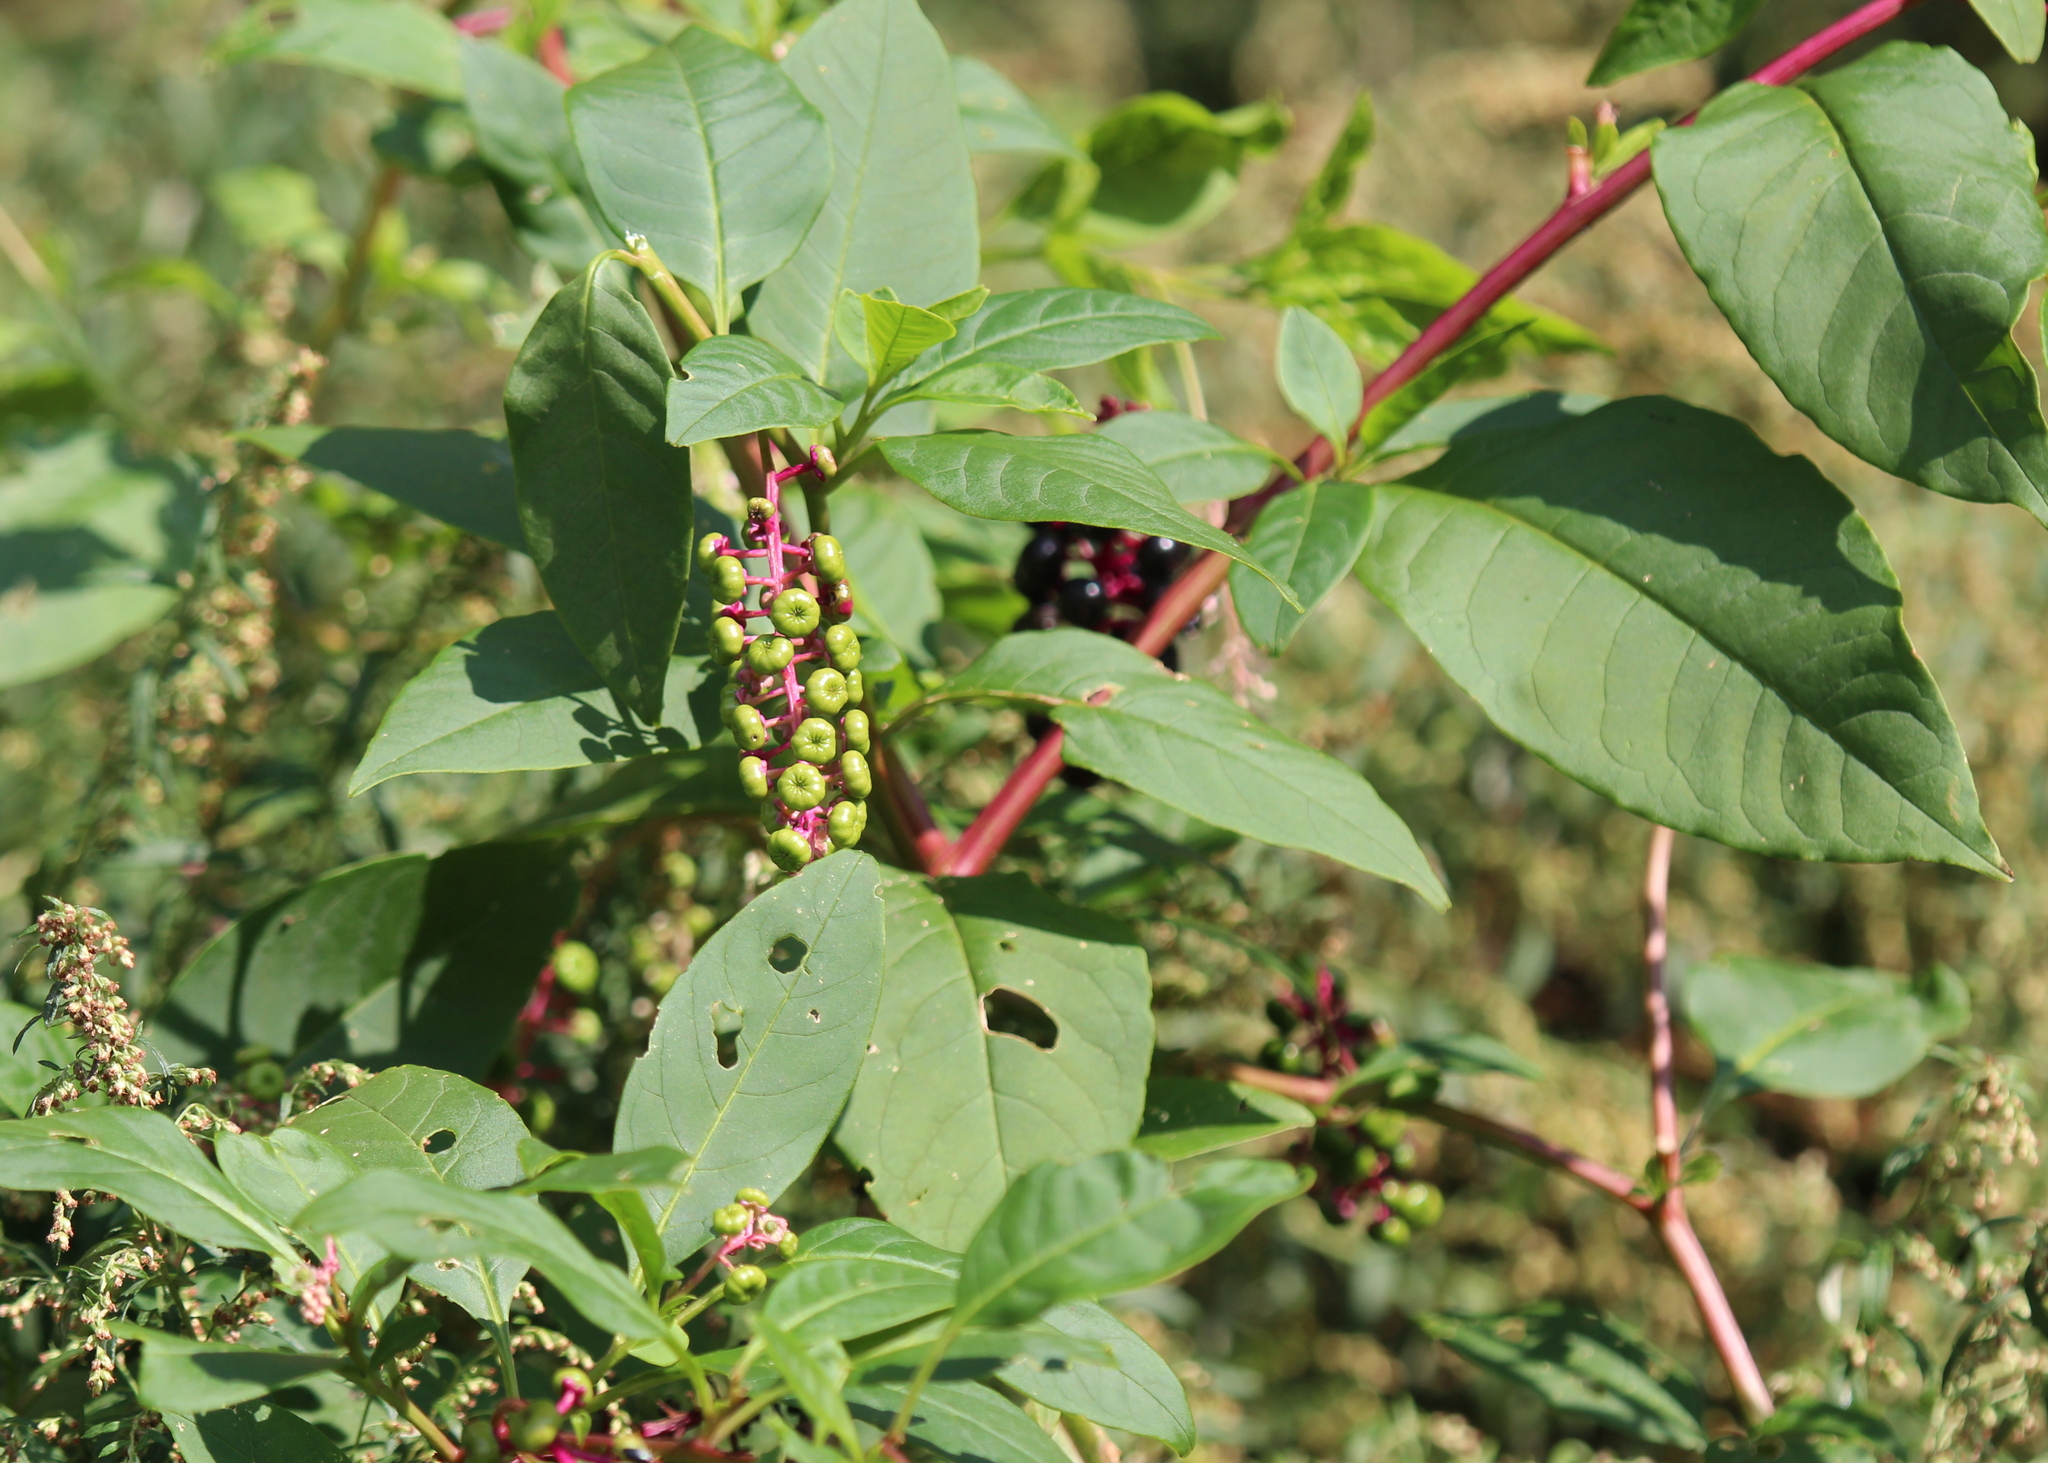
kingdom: Plantae
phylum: Tracheophyta
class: Magnoliopsida
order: Caryophyllales
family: Phytolaccaceae
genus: Phytolacca
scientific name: Phytolacca americana
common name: American pokeweed
